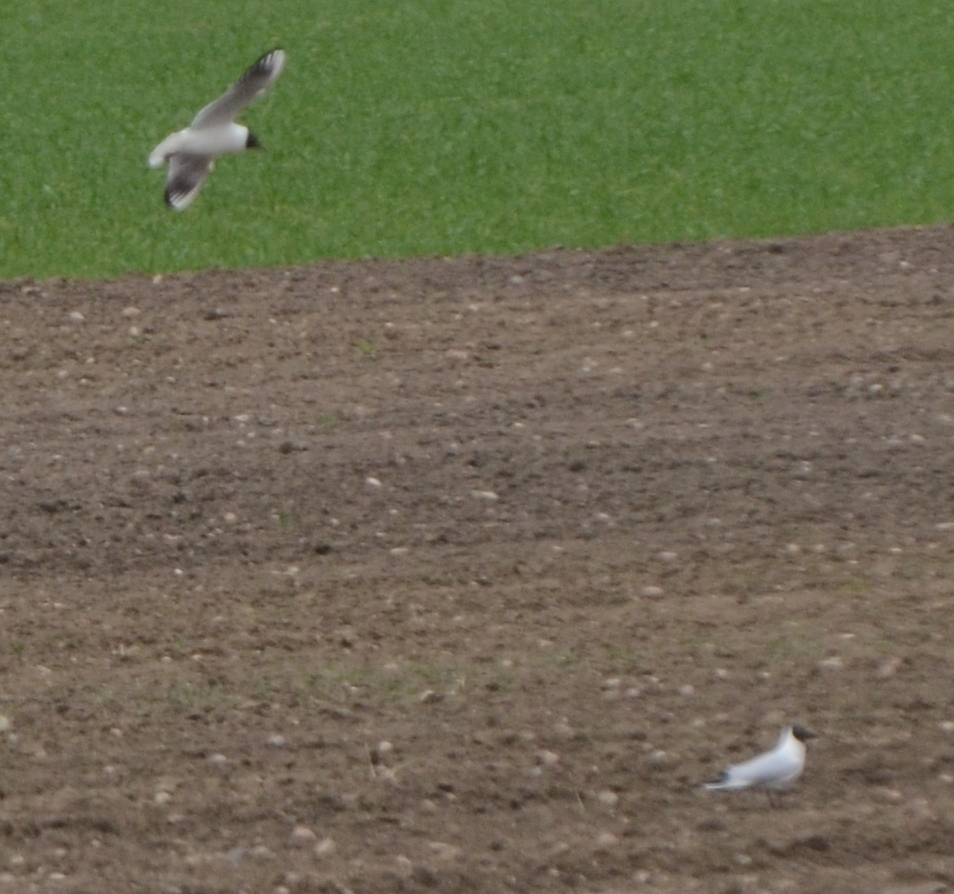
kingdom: Animalia
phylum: Chordata
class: Aves
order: Charadriiformes
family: Laridae
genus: Chroicocephalus
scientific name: Chroicocephalus ridibundus
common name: Black-headed gull
